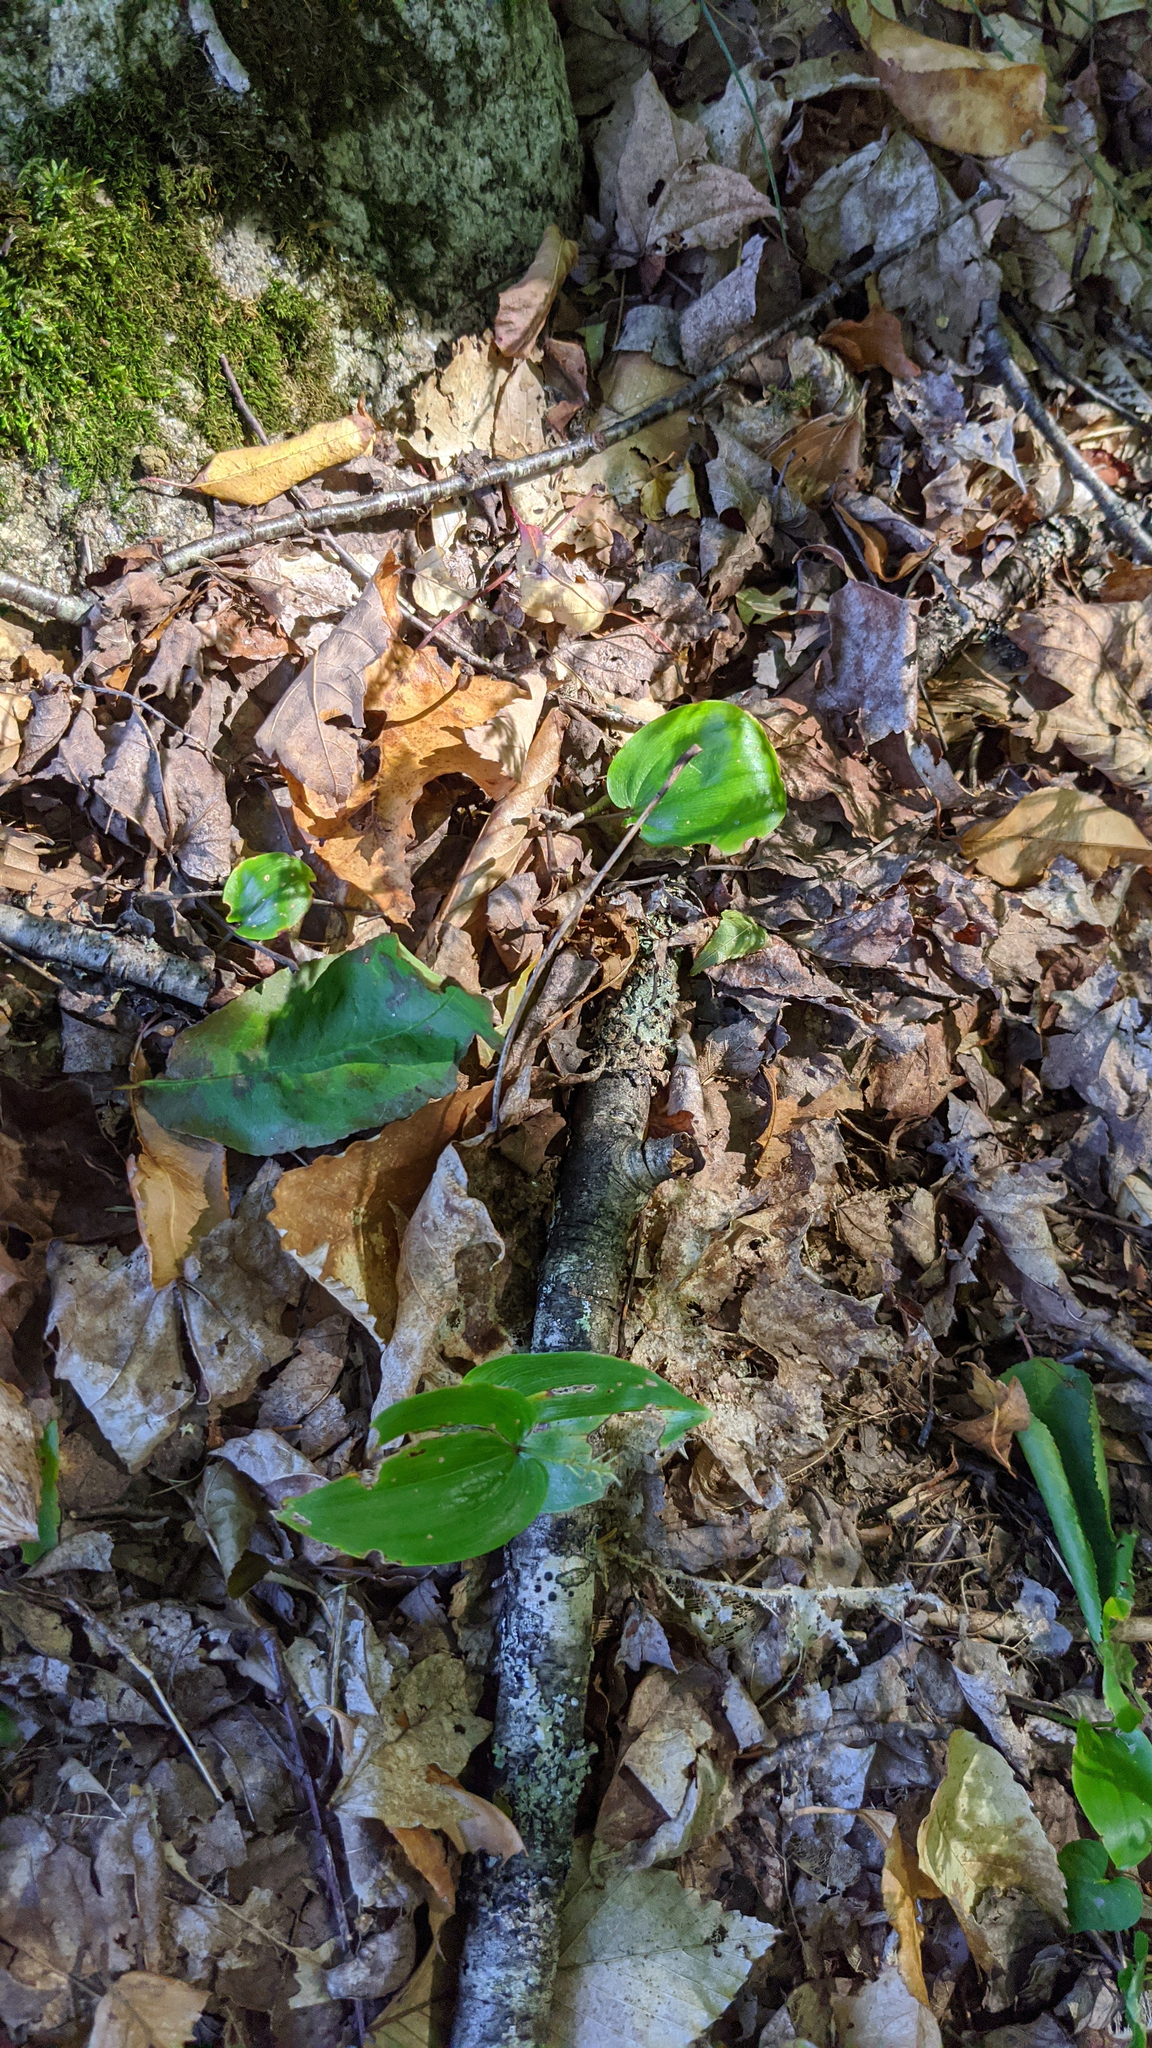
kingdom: Plantae
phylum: Tracheophyta
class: Liliopsida
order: Asparagales
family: Asparagaceae
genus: Maianthemum
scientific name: Maianthemum canadense
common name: False lily-of-the-valley
